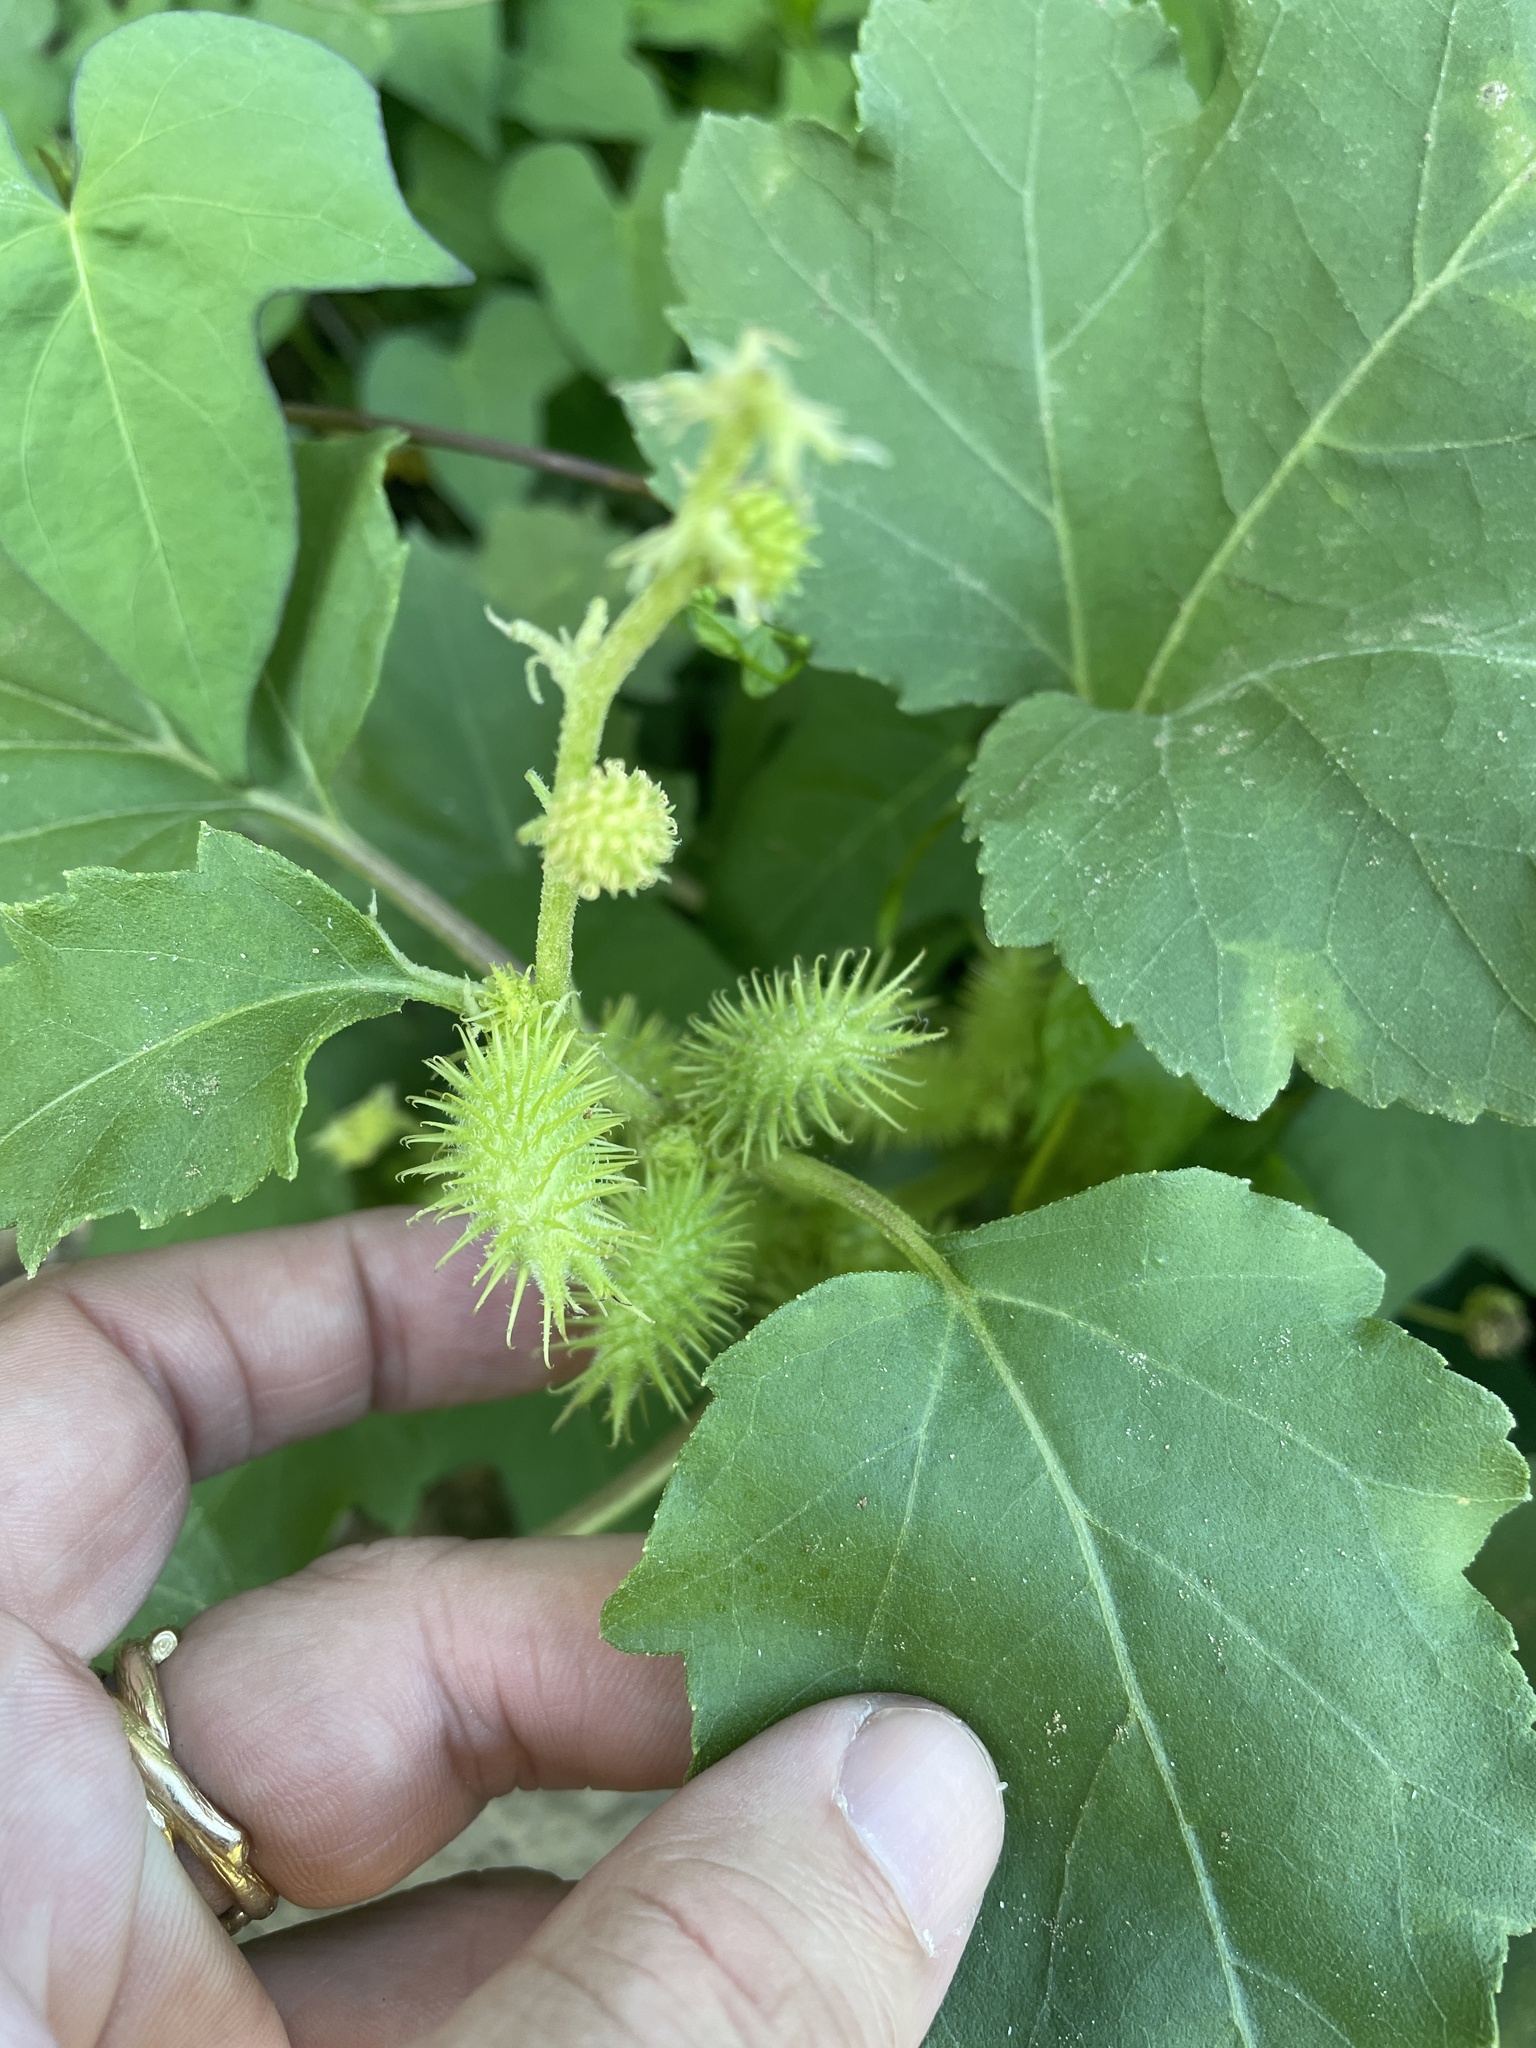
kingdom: Plantae
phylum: Tracheophyta
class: Magnoliopsida
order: Asterales
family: Asteraceae
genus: Xanthium
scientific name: Xanthium strumarium
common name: Rough cocklebur
